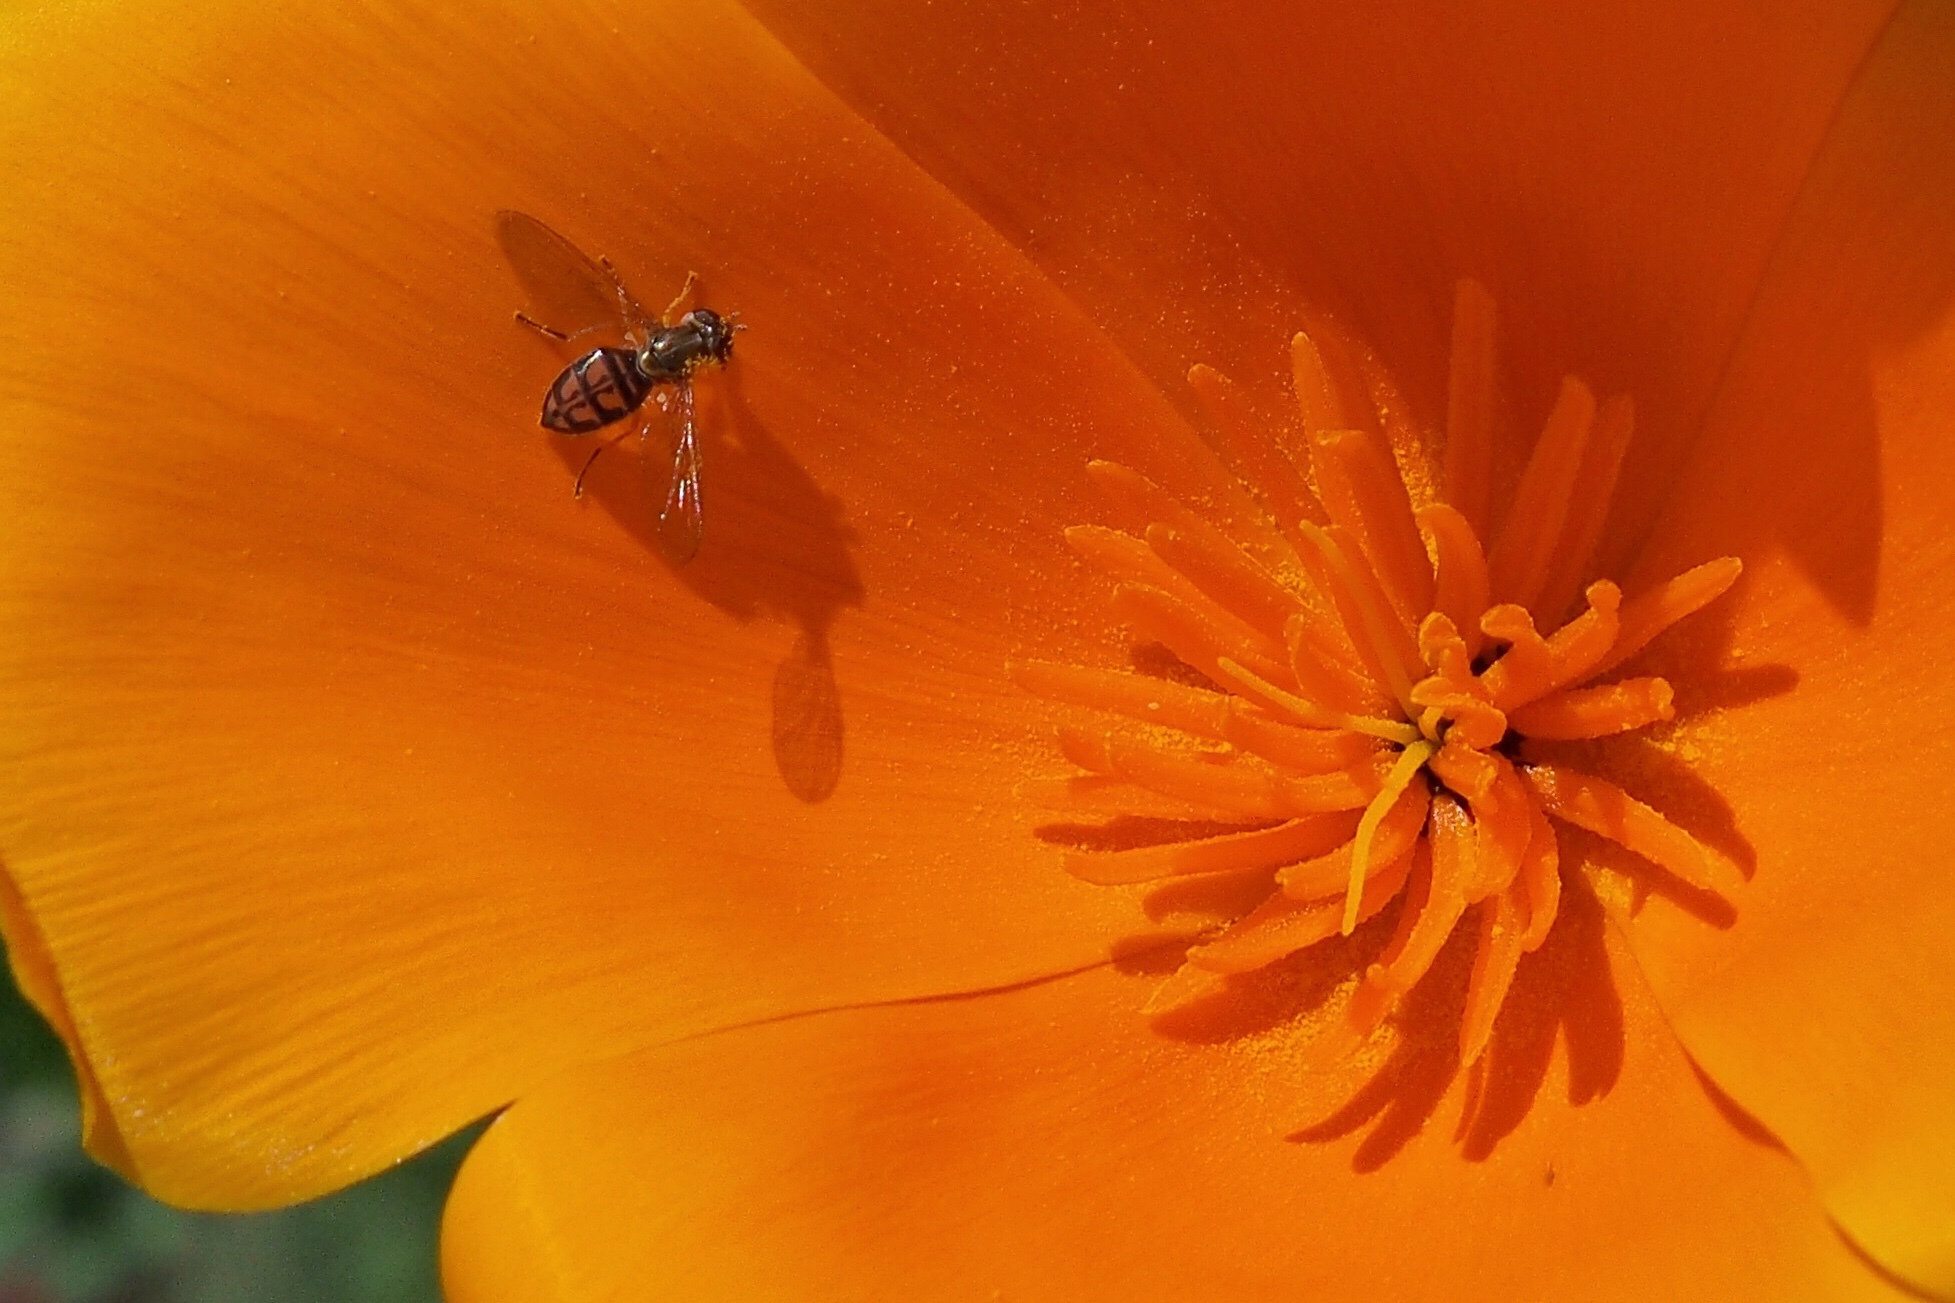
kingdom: Animalia
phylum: Arthropoda
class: Insecta
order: Diptera
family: Syrphidae
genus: Toxomerus
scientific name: Toxomerus marginatus
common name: Syrphid fly
